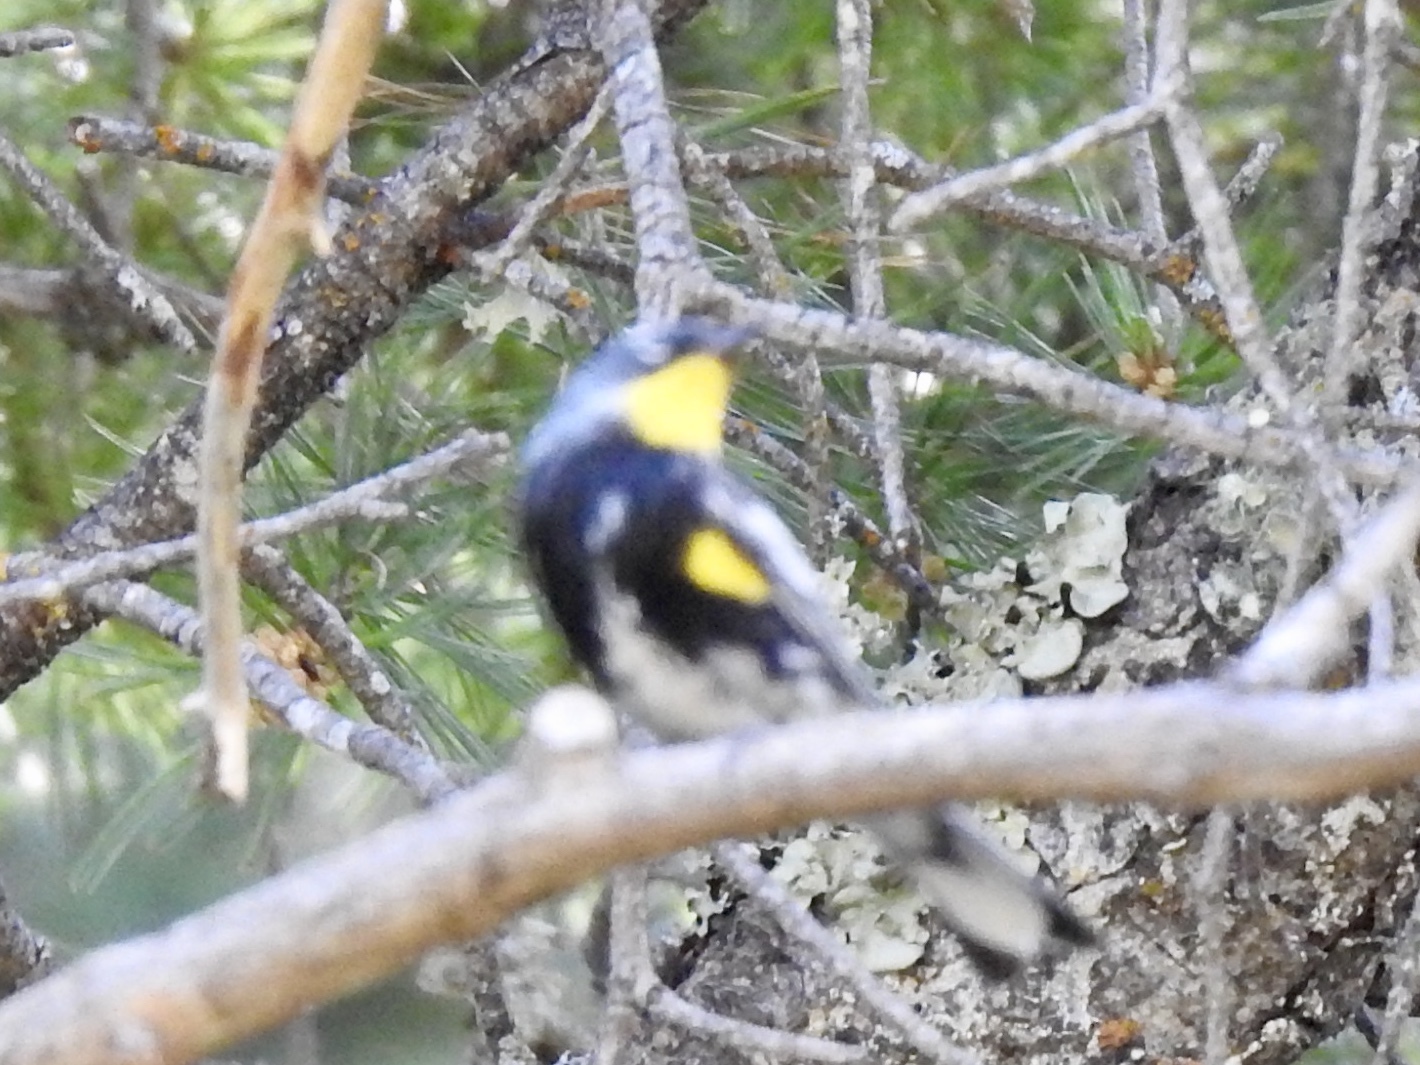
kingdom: Animalia
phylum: Chordata
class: Aves
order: Passeriformes
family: Parulidae
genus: Setophaga
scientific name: Setophaga coronata
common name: Myrtle warbler
